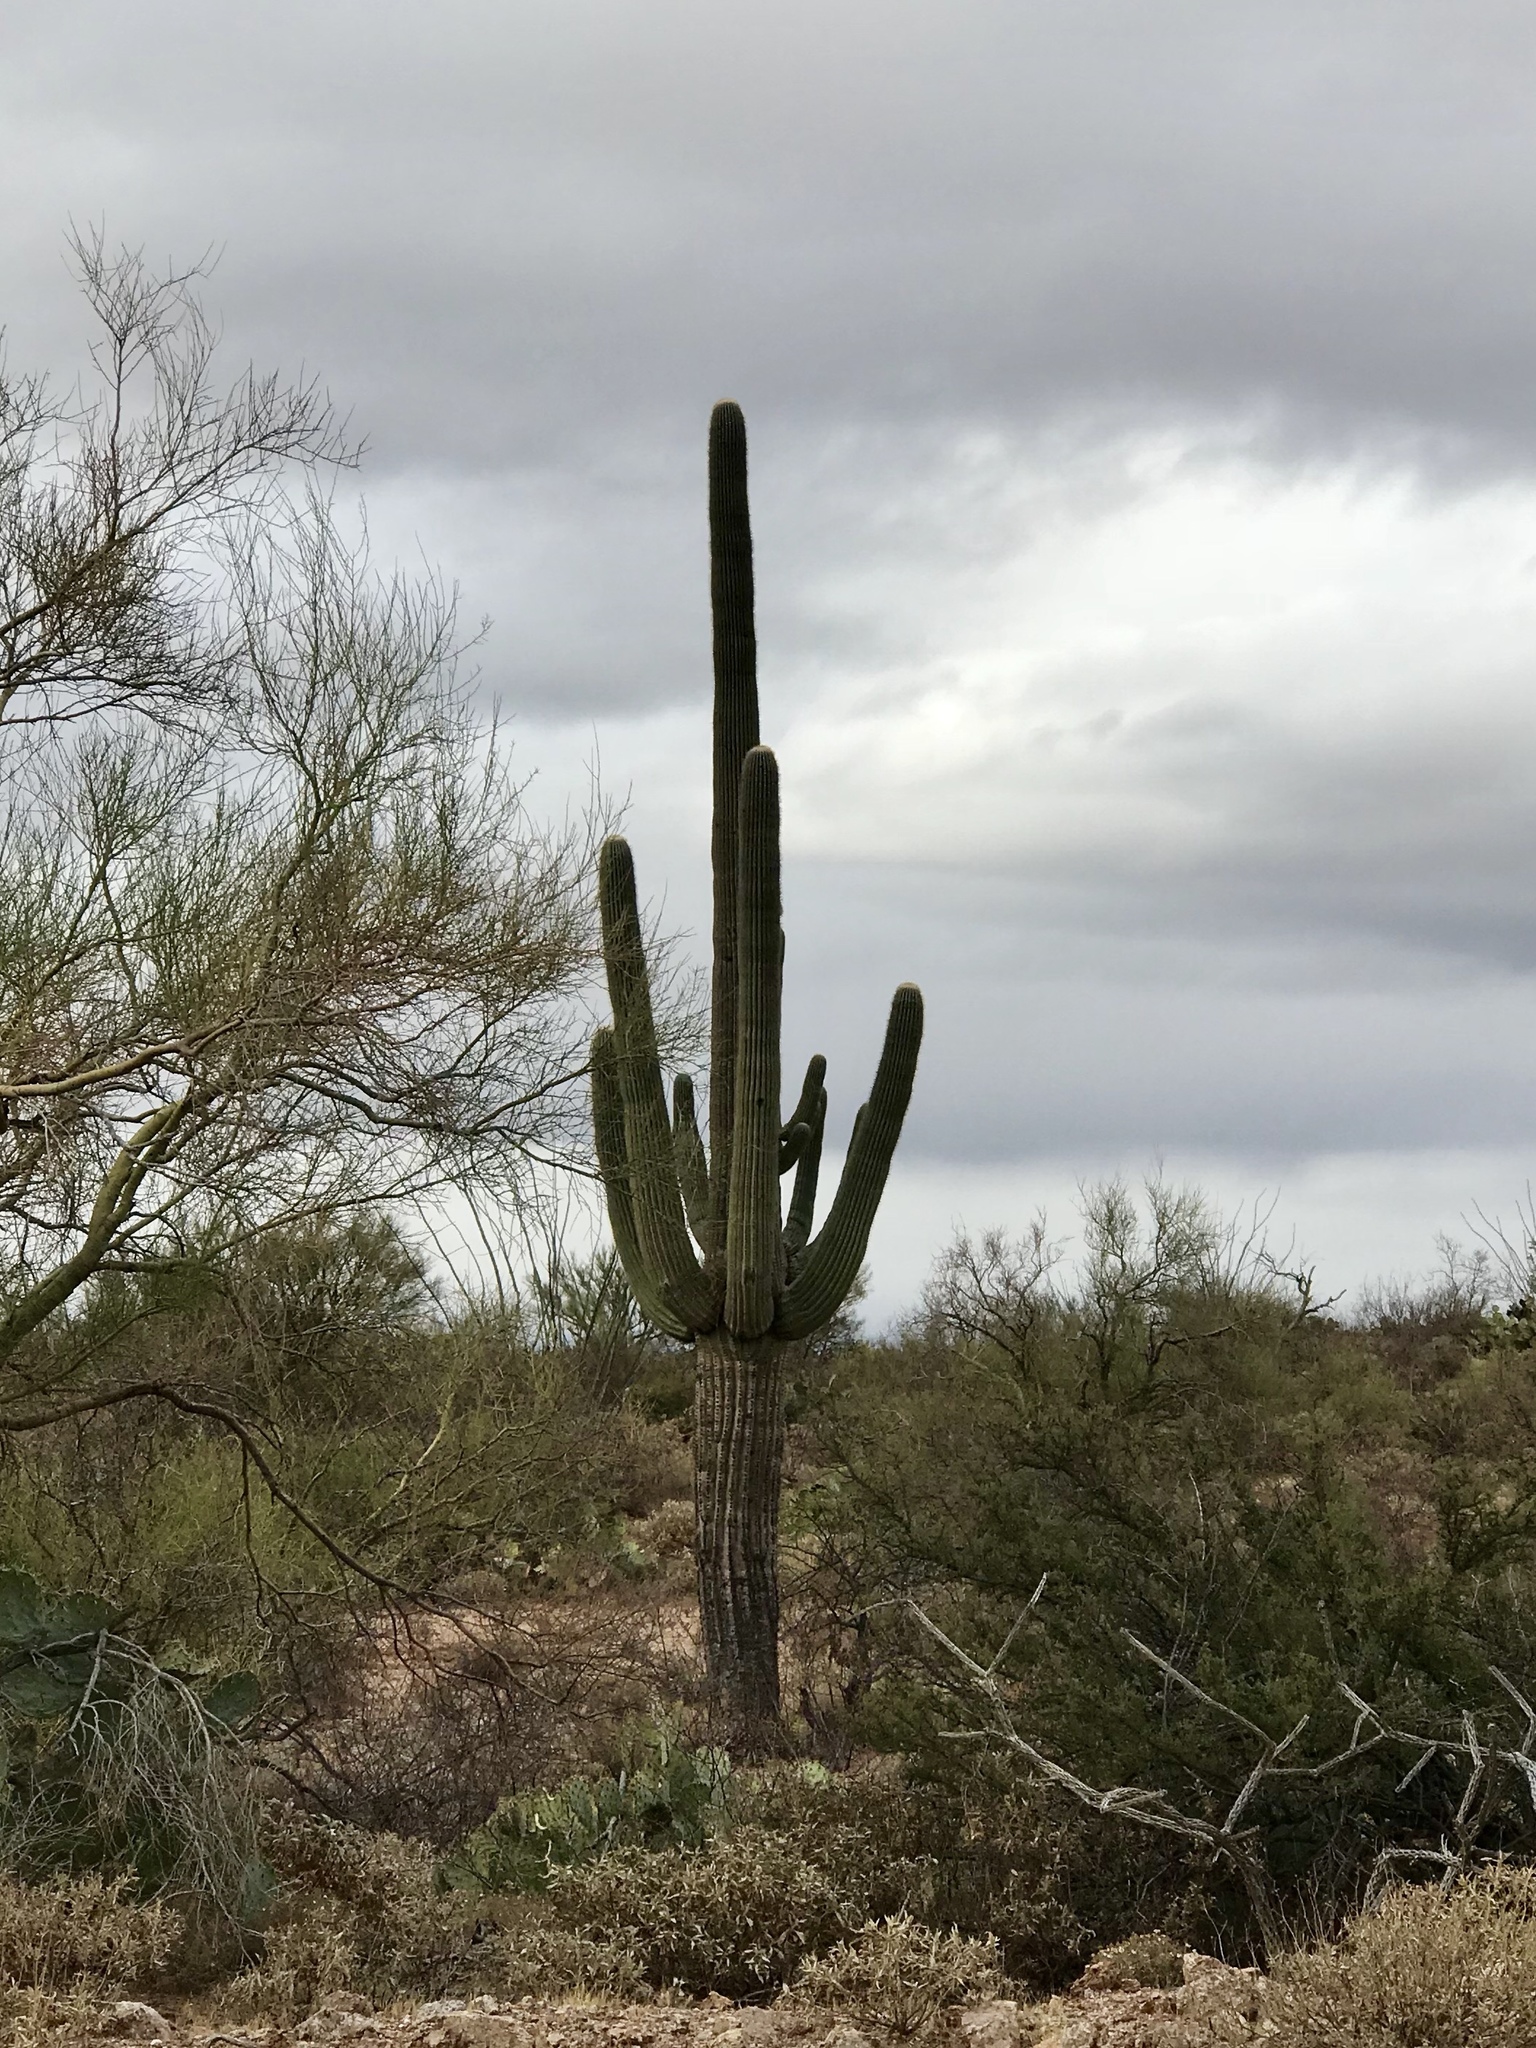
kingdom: Plantae
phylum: Tracheophyta
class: Magnoliopsida
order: Caryophyllales
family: Cactaceae
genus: Carnegiea
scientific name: Carnegiea gigantea
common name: Saguaro
